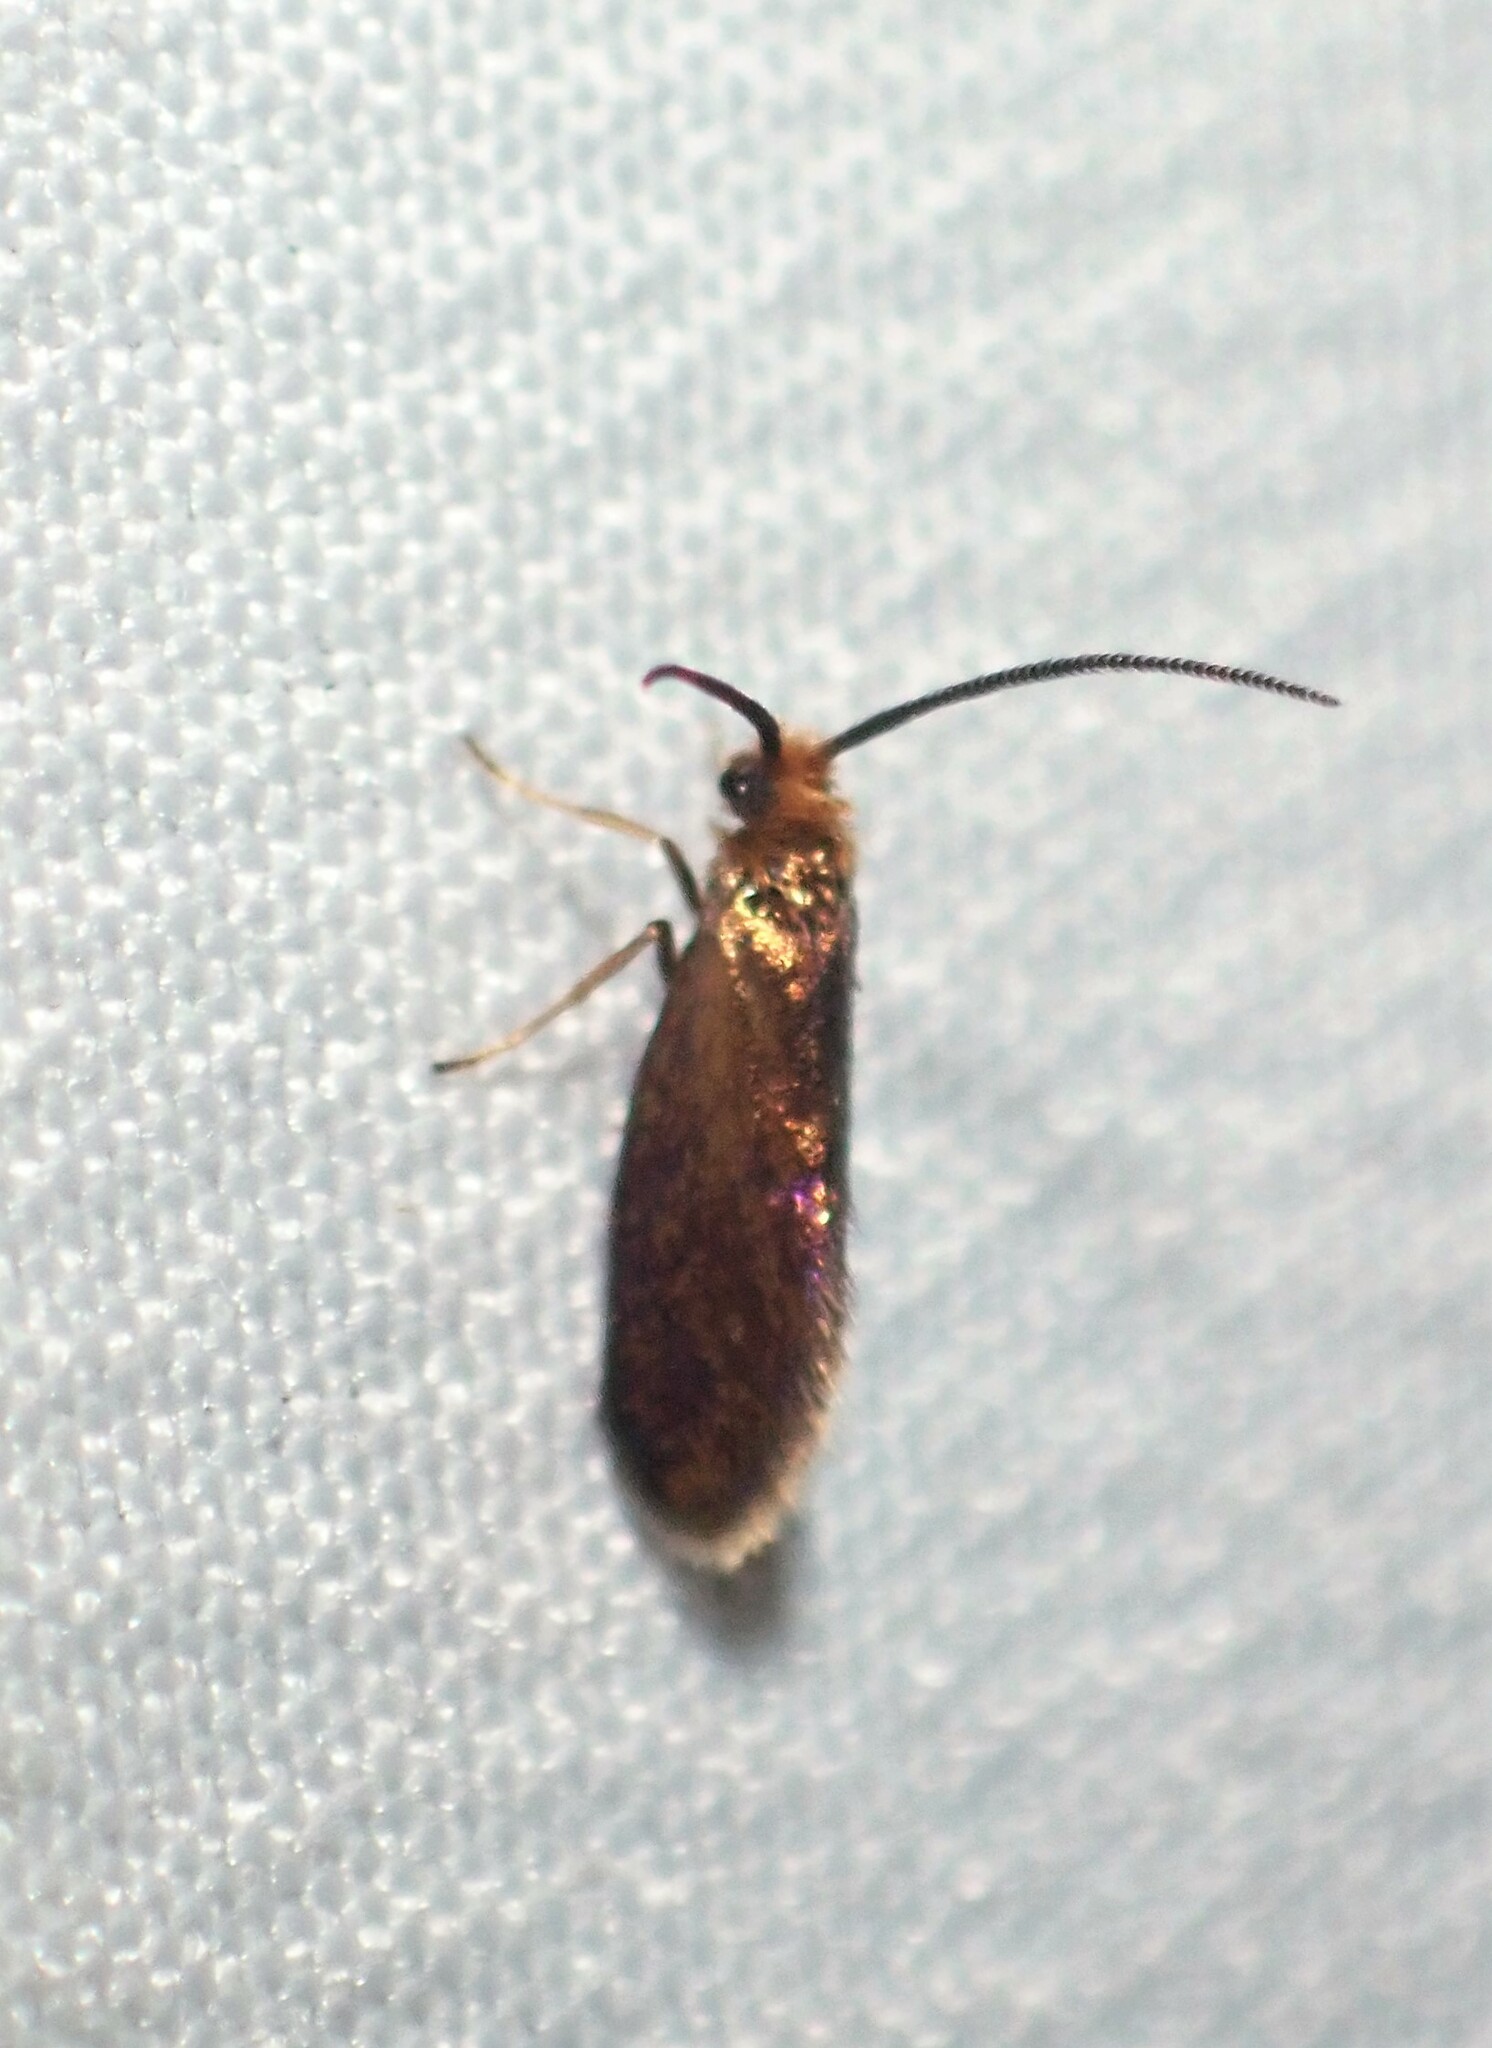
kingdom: Animalia
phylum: Arthropoda
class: Insecta
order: Lepidoptera
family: Micropterigidae
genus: Epimartyria
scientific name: Epimartyria auricrinella
